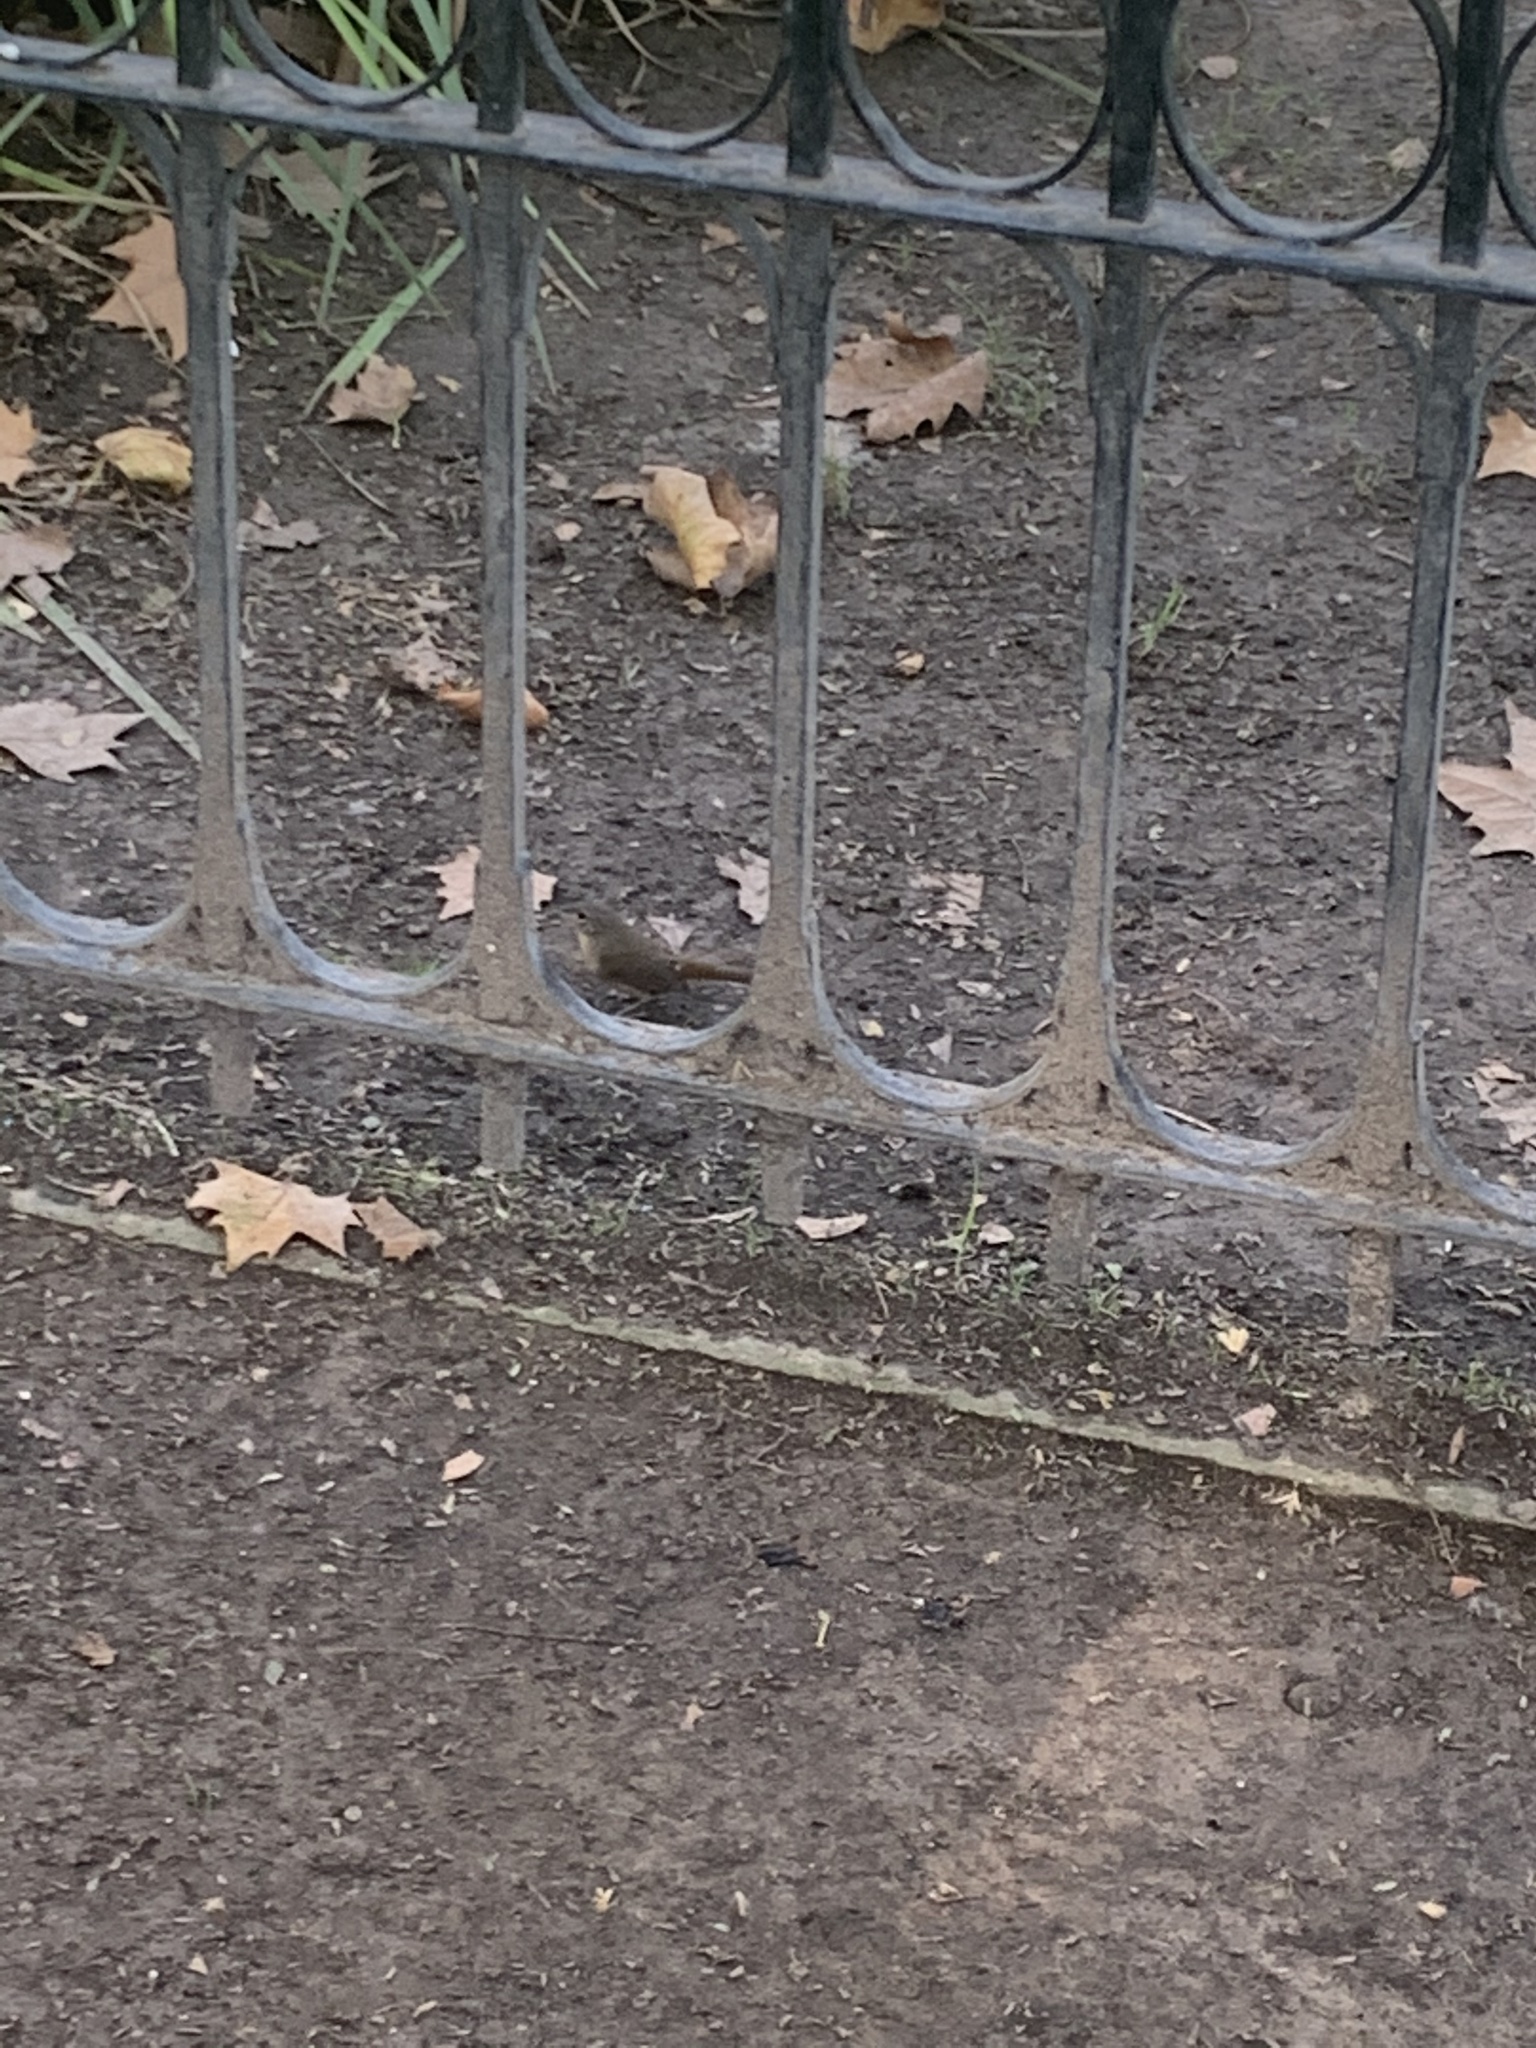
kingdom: Animalia
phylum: Chordata
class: Aves
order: Passeriformes
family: Troglodytidae
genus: Troglodytes
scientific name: Troglodytes aedon
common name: House wren
